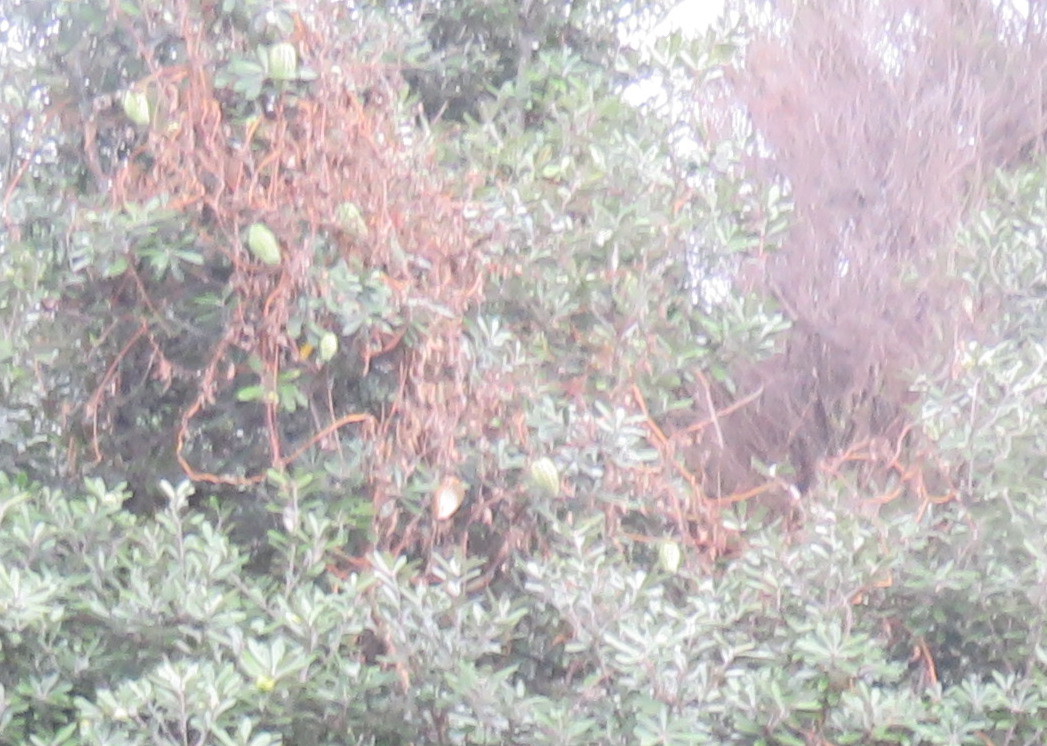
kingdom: Plantae
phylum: Tracheophyta
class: Magnoliopsida
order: Gentianales
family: Apocynaceae
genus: Araujia
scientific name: Araujia sericifera
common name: White bladderflower
